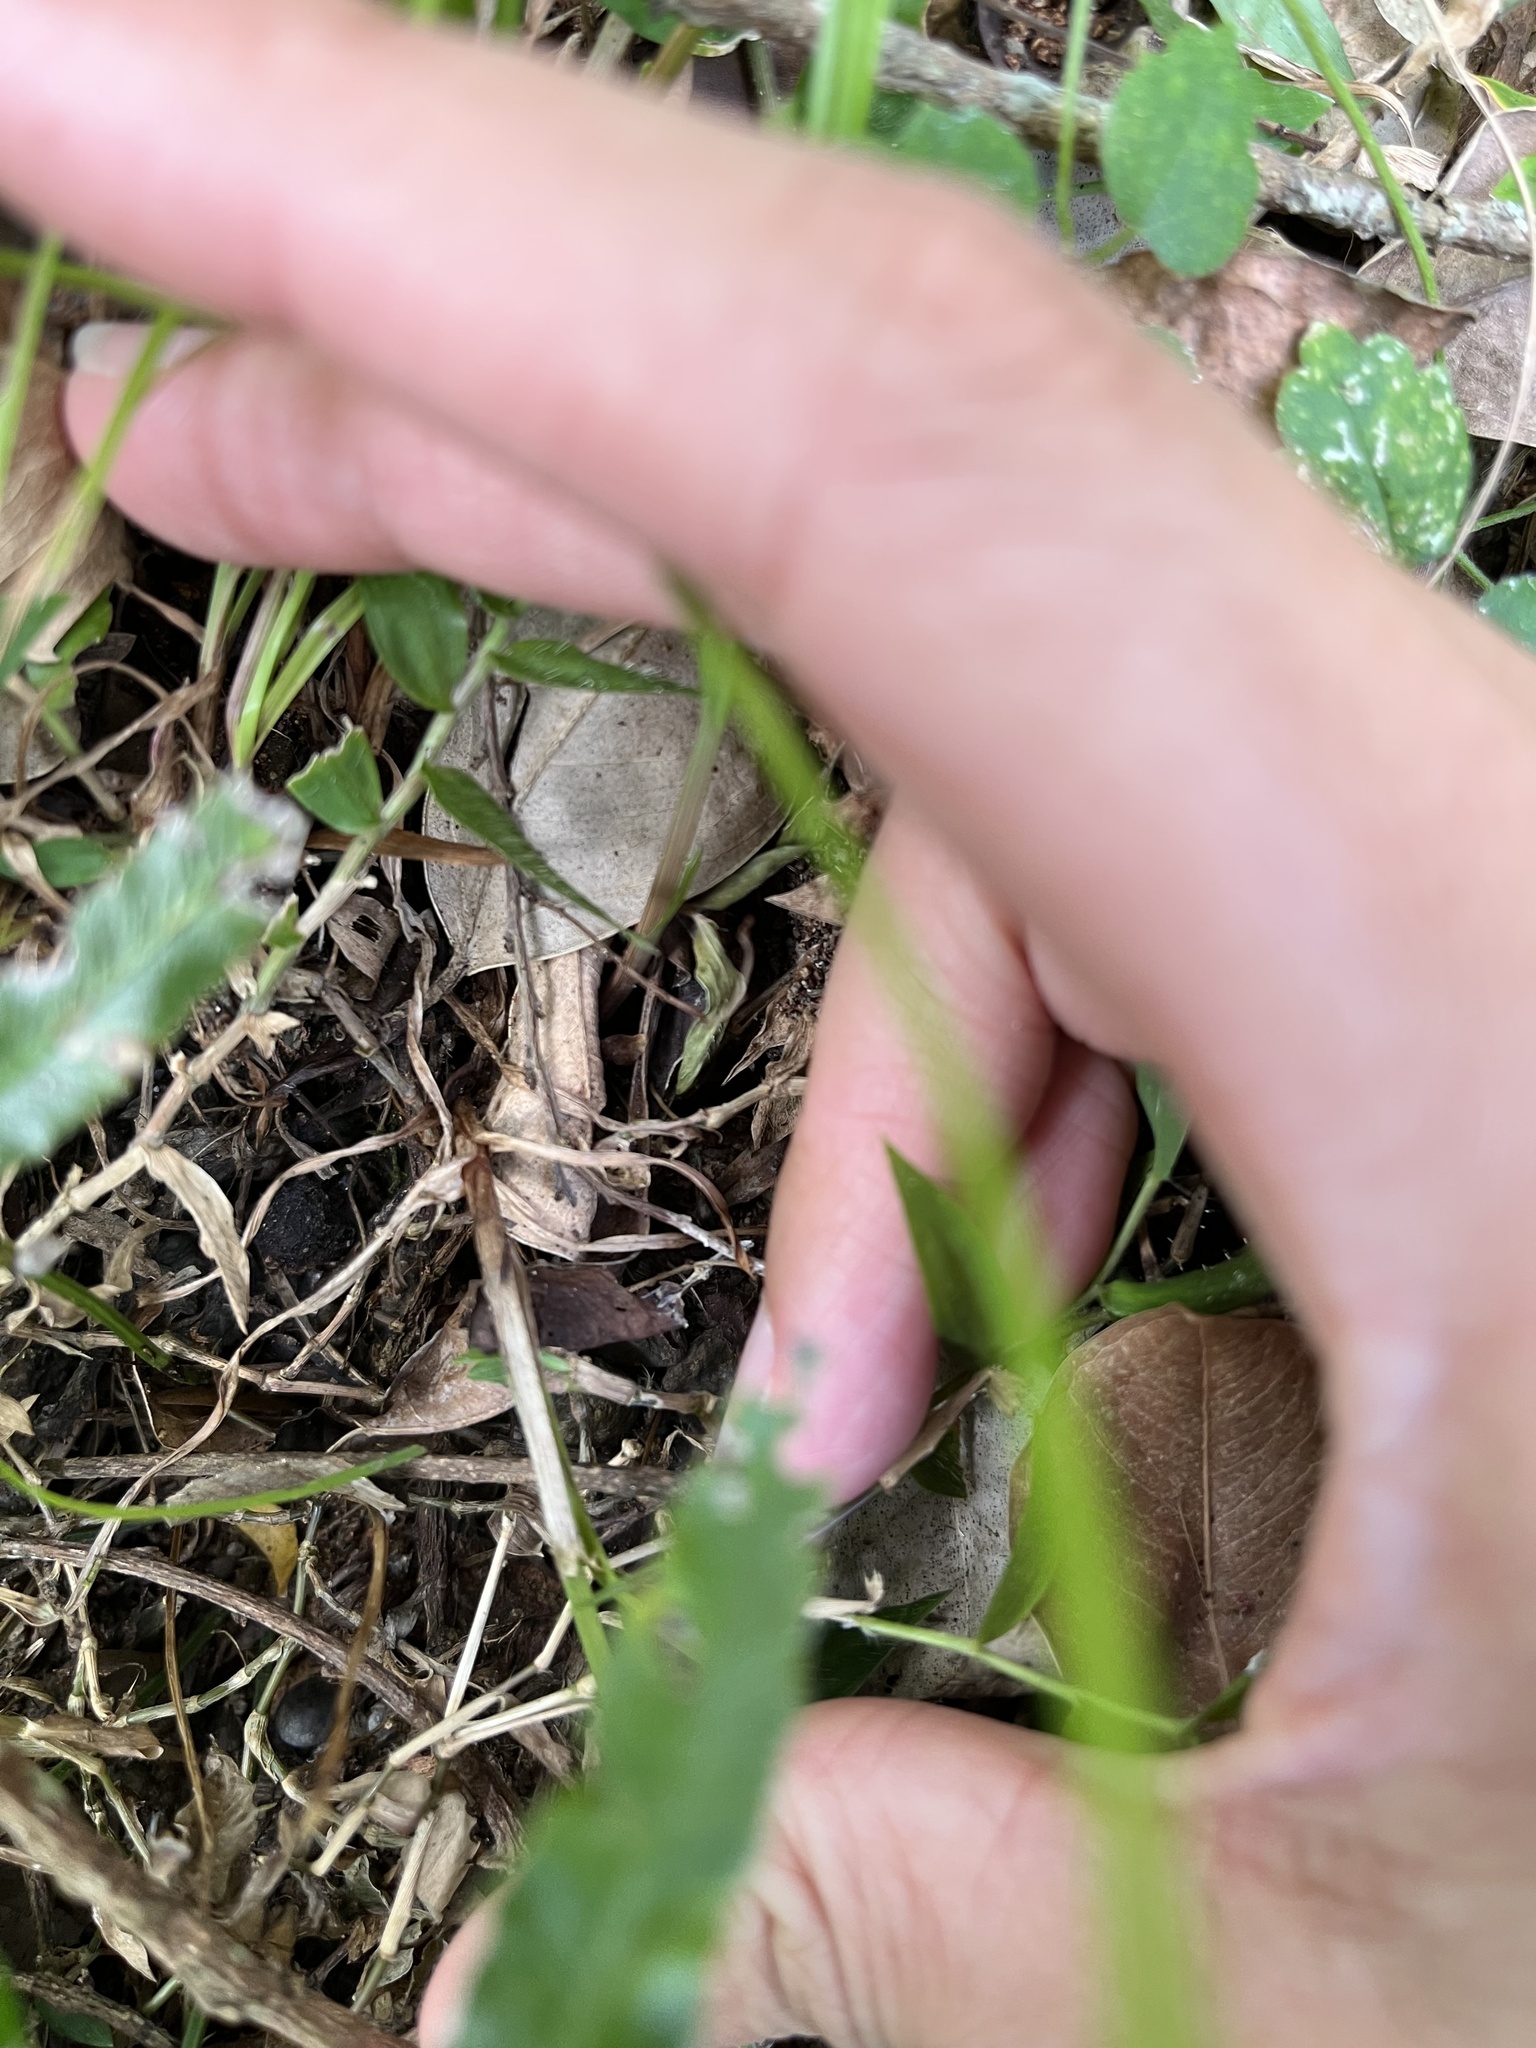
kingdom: Plantae
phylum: Tracheophyta
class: Liliopsida
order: Poales
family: Cyperaceae
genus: Cyperus
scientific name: Cyperus mindorensis
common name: Flatsedge
